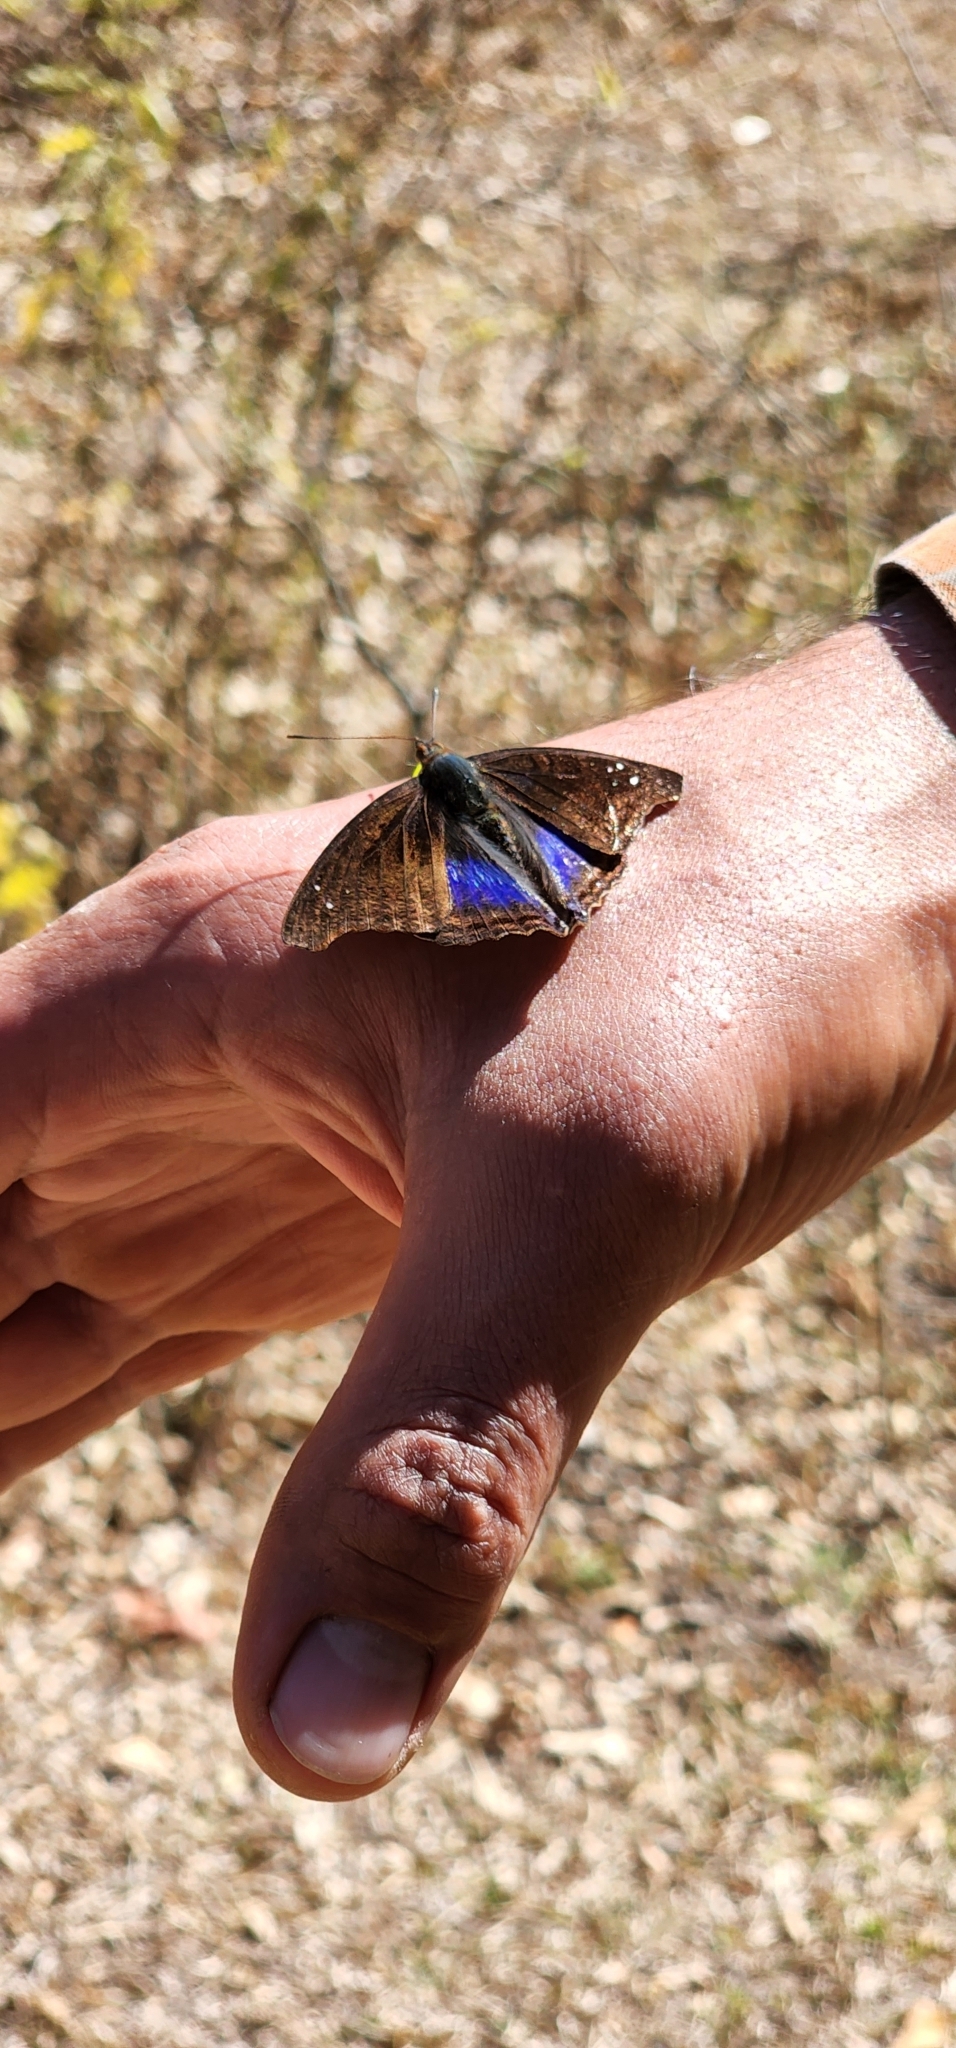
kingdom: Animalia
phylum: Arthropoda
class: Insecta
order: Lepidoptera
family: Nymphalidae
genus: Doxocopa
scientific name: Doxocopa cyane
